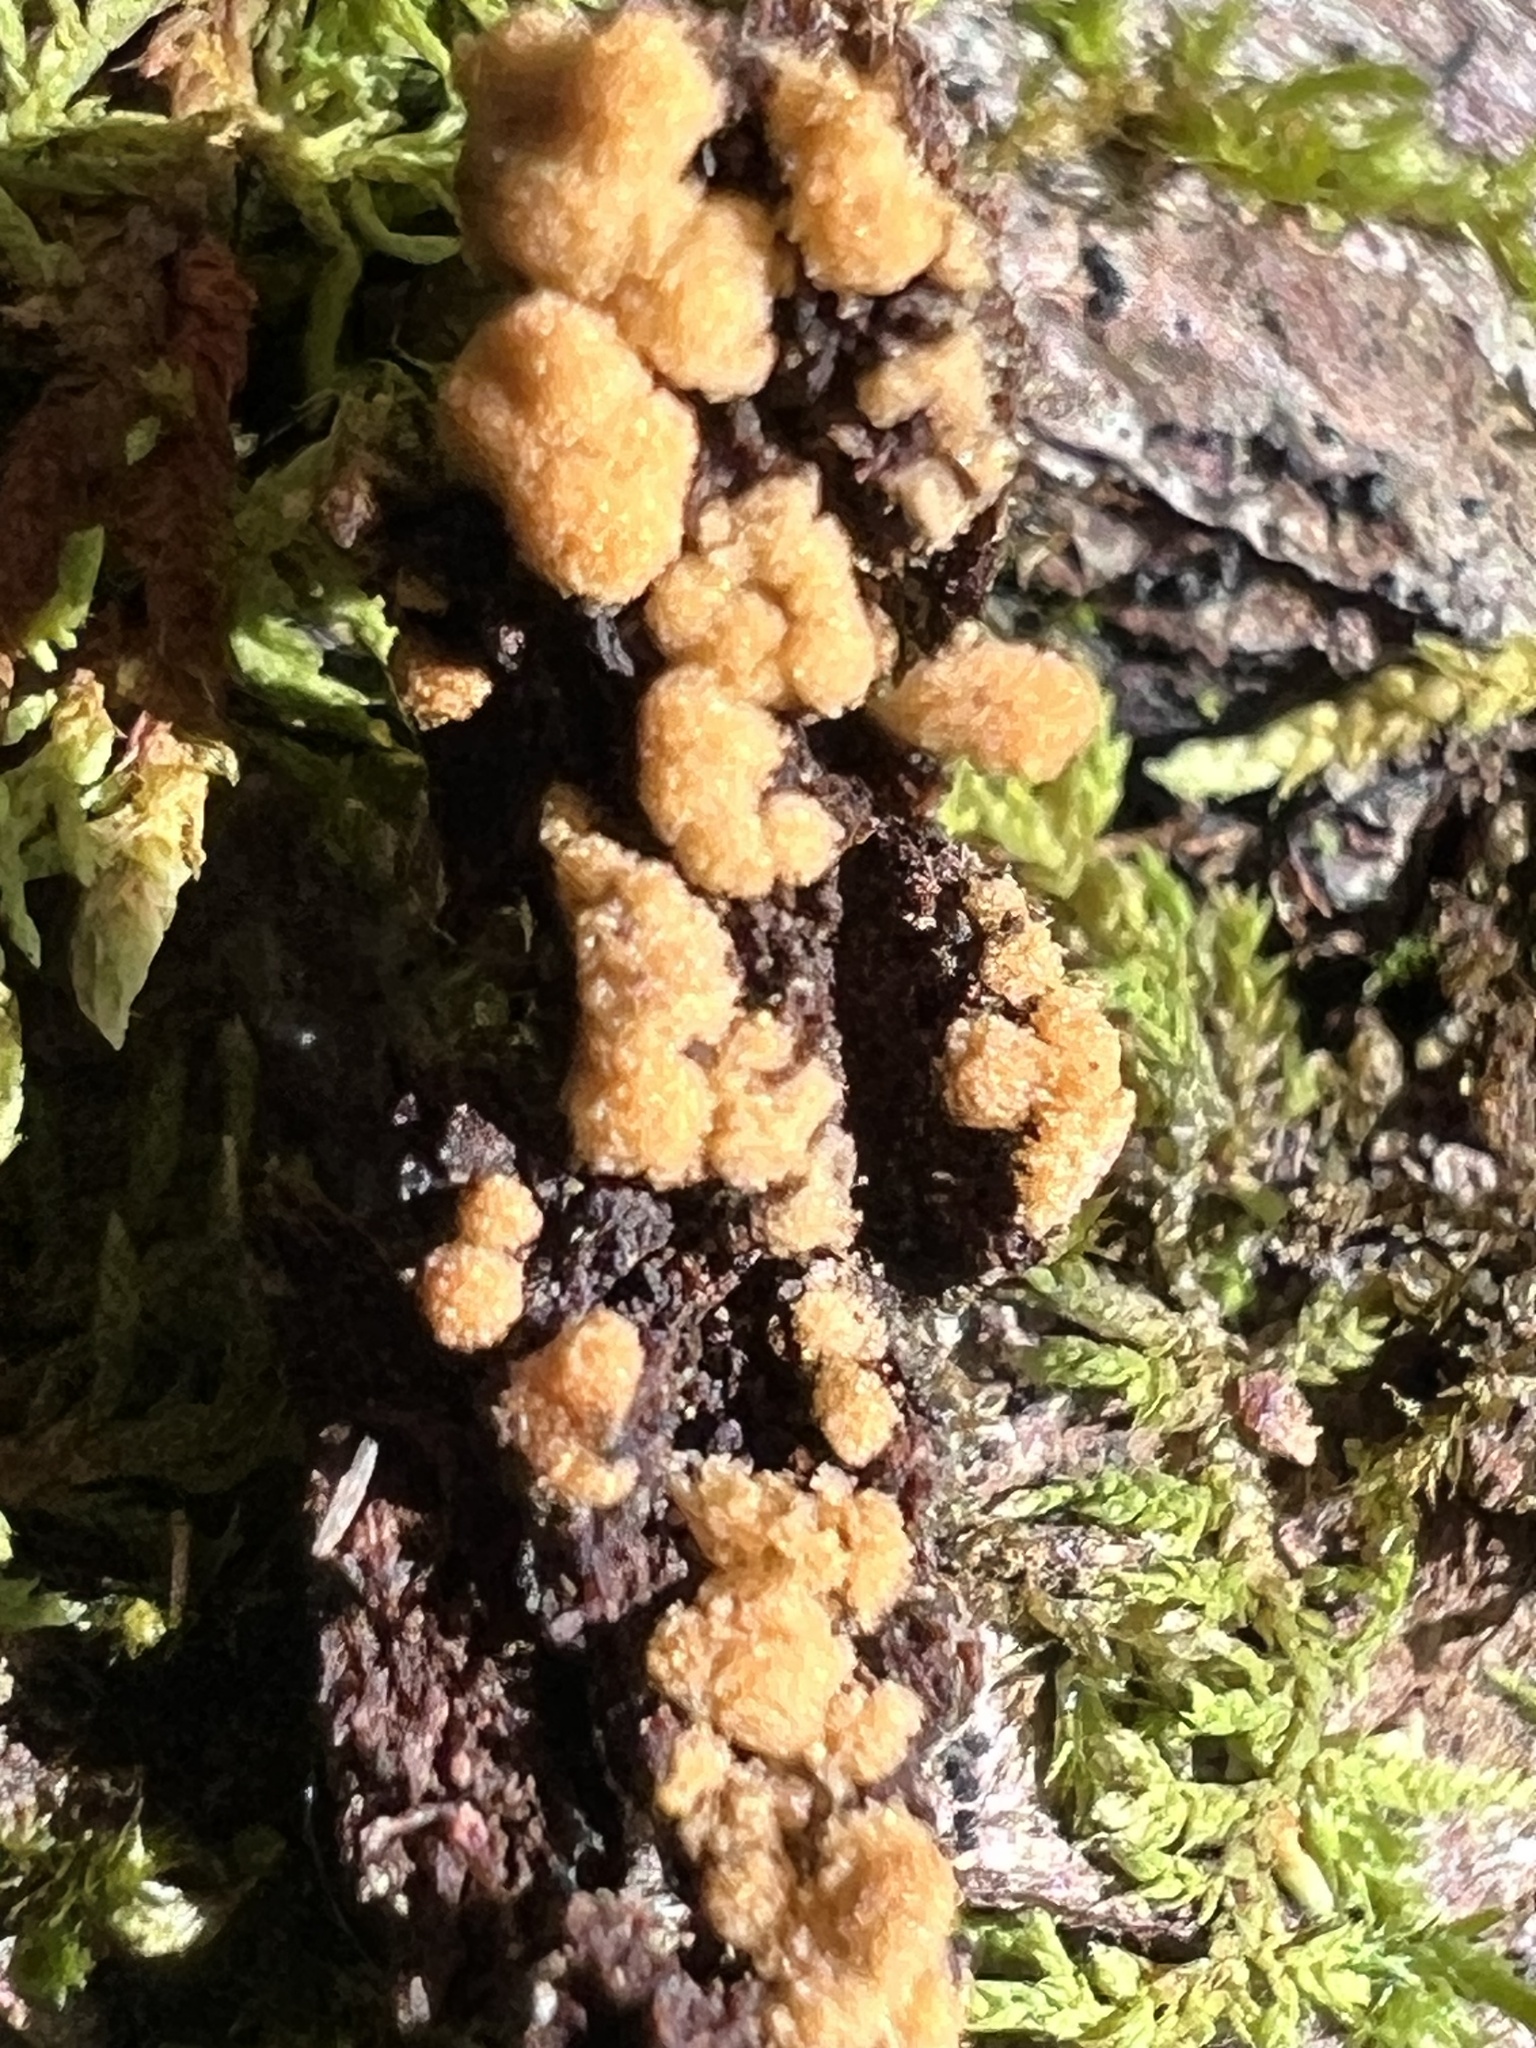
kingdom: Fungi
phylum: Ascomycota
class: Pezizomycetes
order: Pezizales
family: Pyronemataceae
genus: Sphaerosporium
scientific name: Sphaerosporium lignatile
